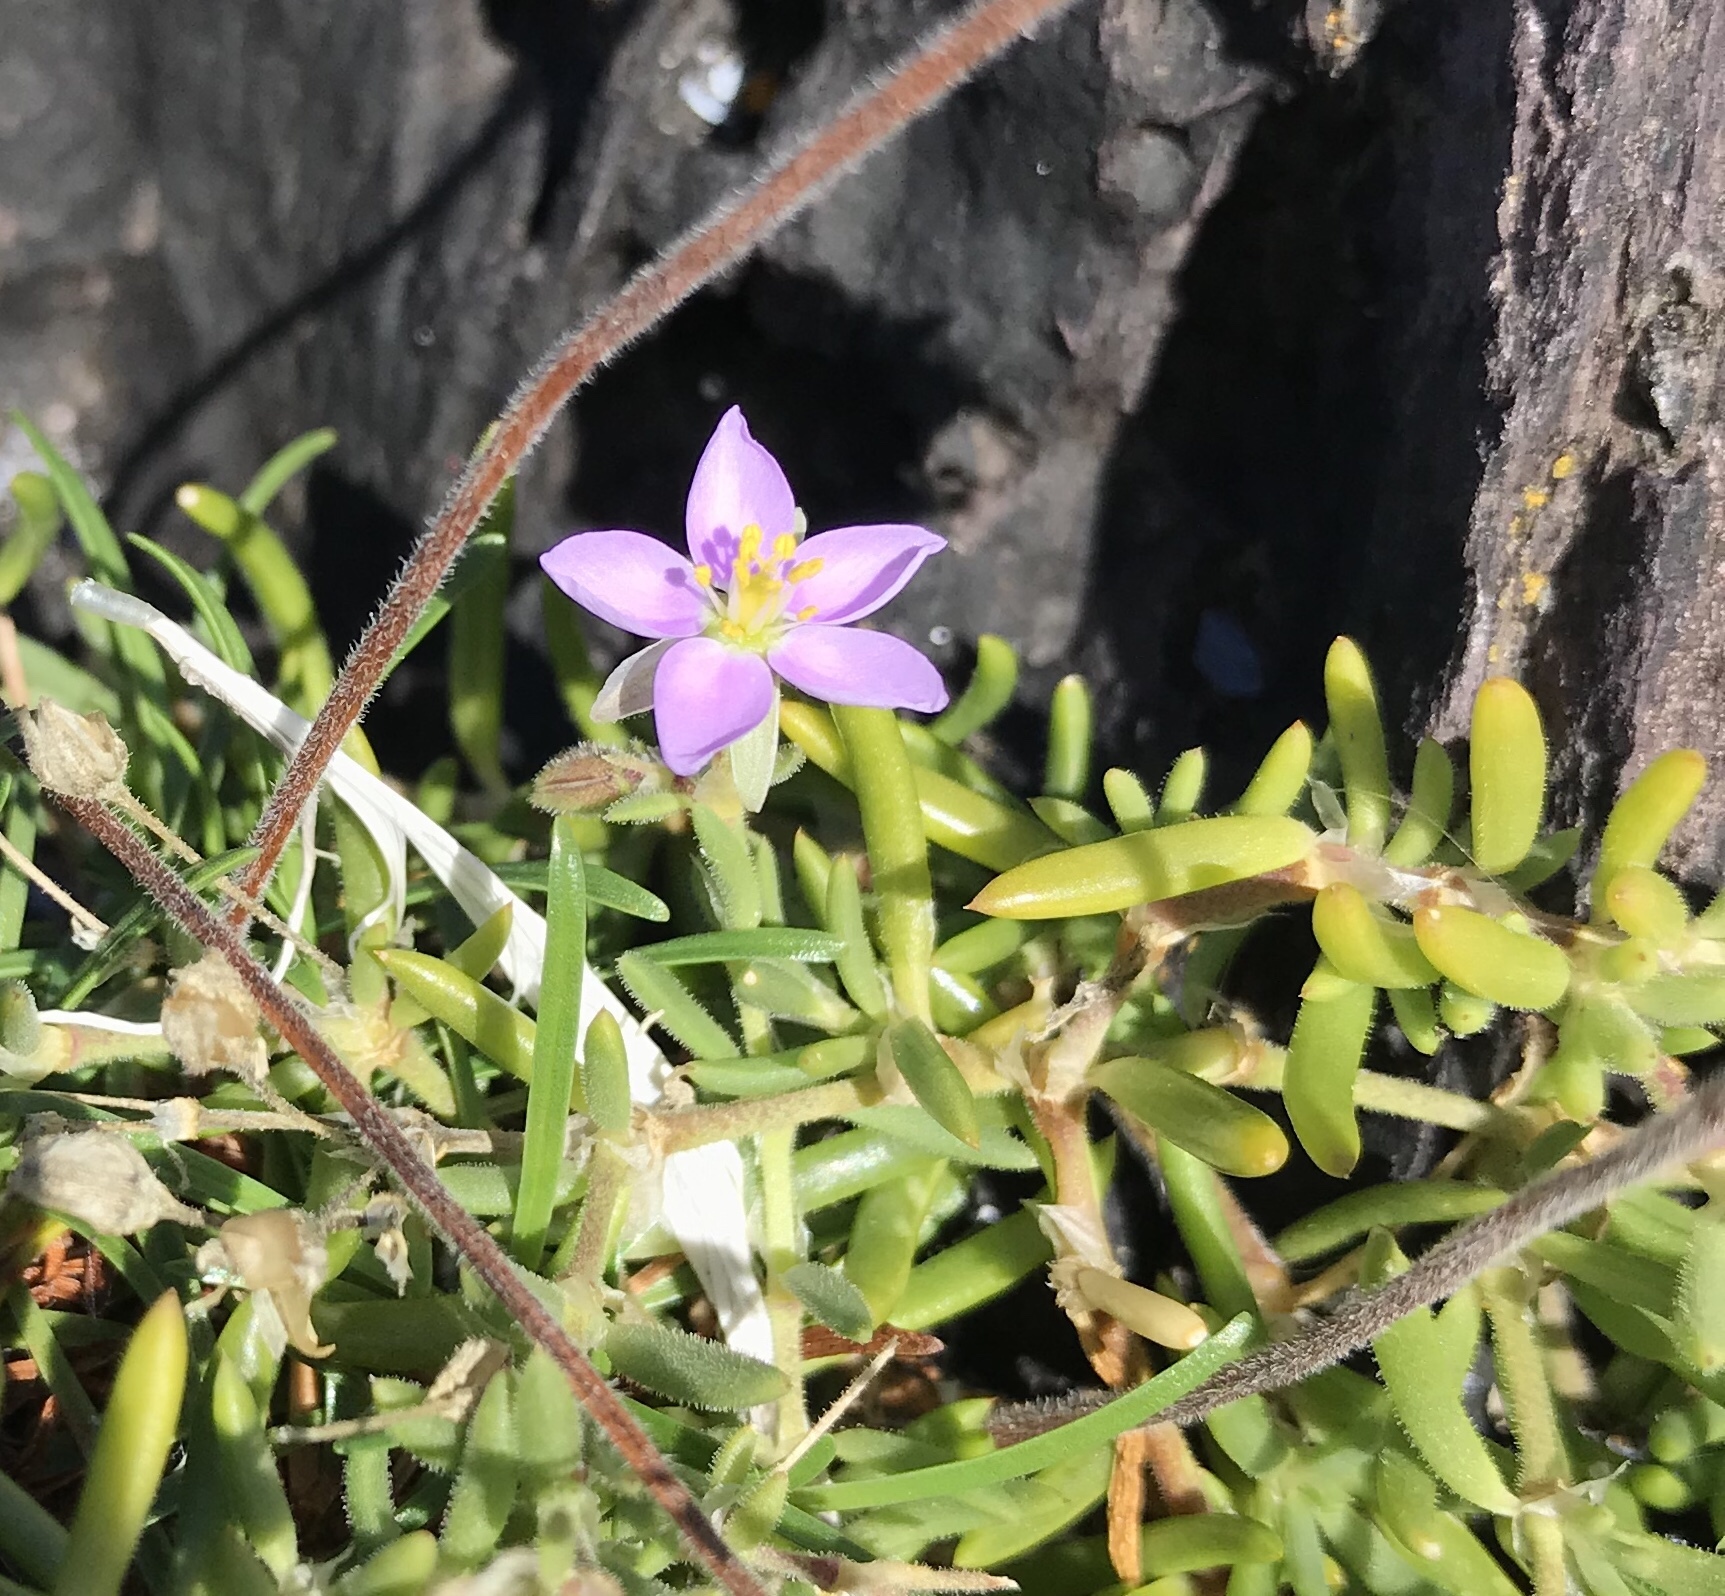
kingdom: Plantae
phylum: Tracheophyta
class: Magnoliopsida
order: Caryophyllales
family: Caryophyllaceae
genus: Spergularia
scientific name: Spergularia rupicola
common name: Cliff sand-spurrey
